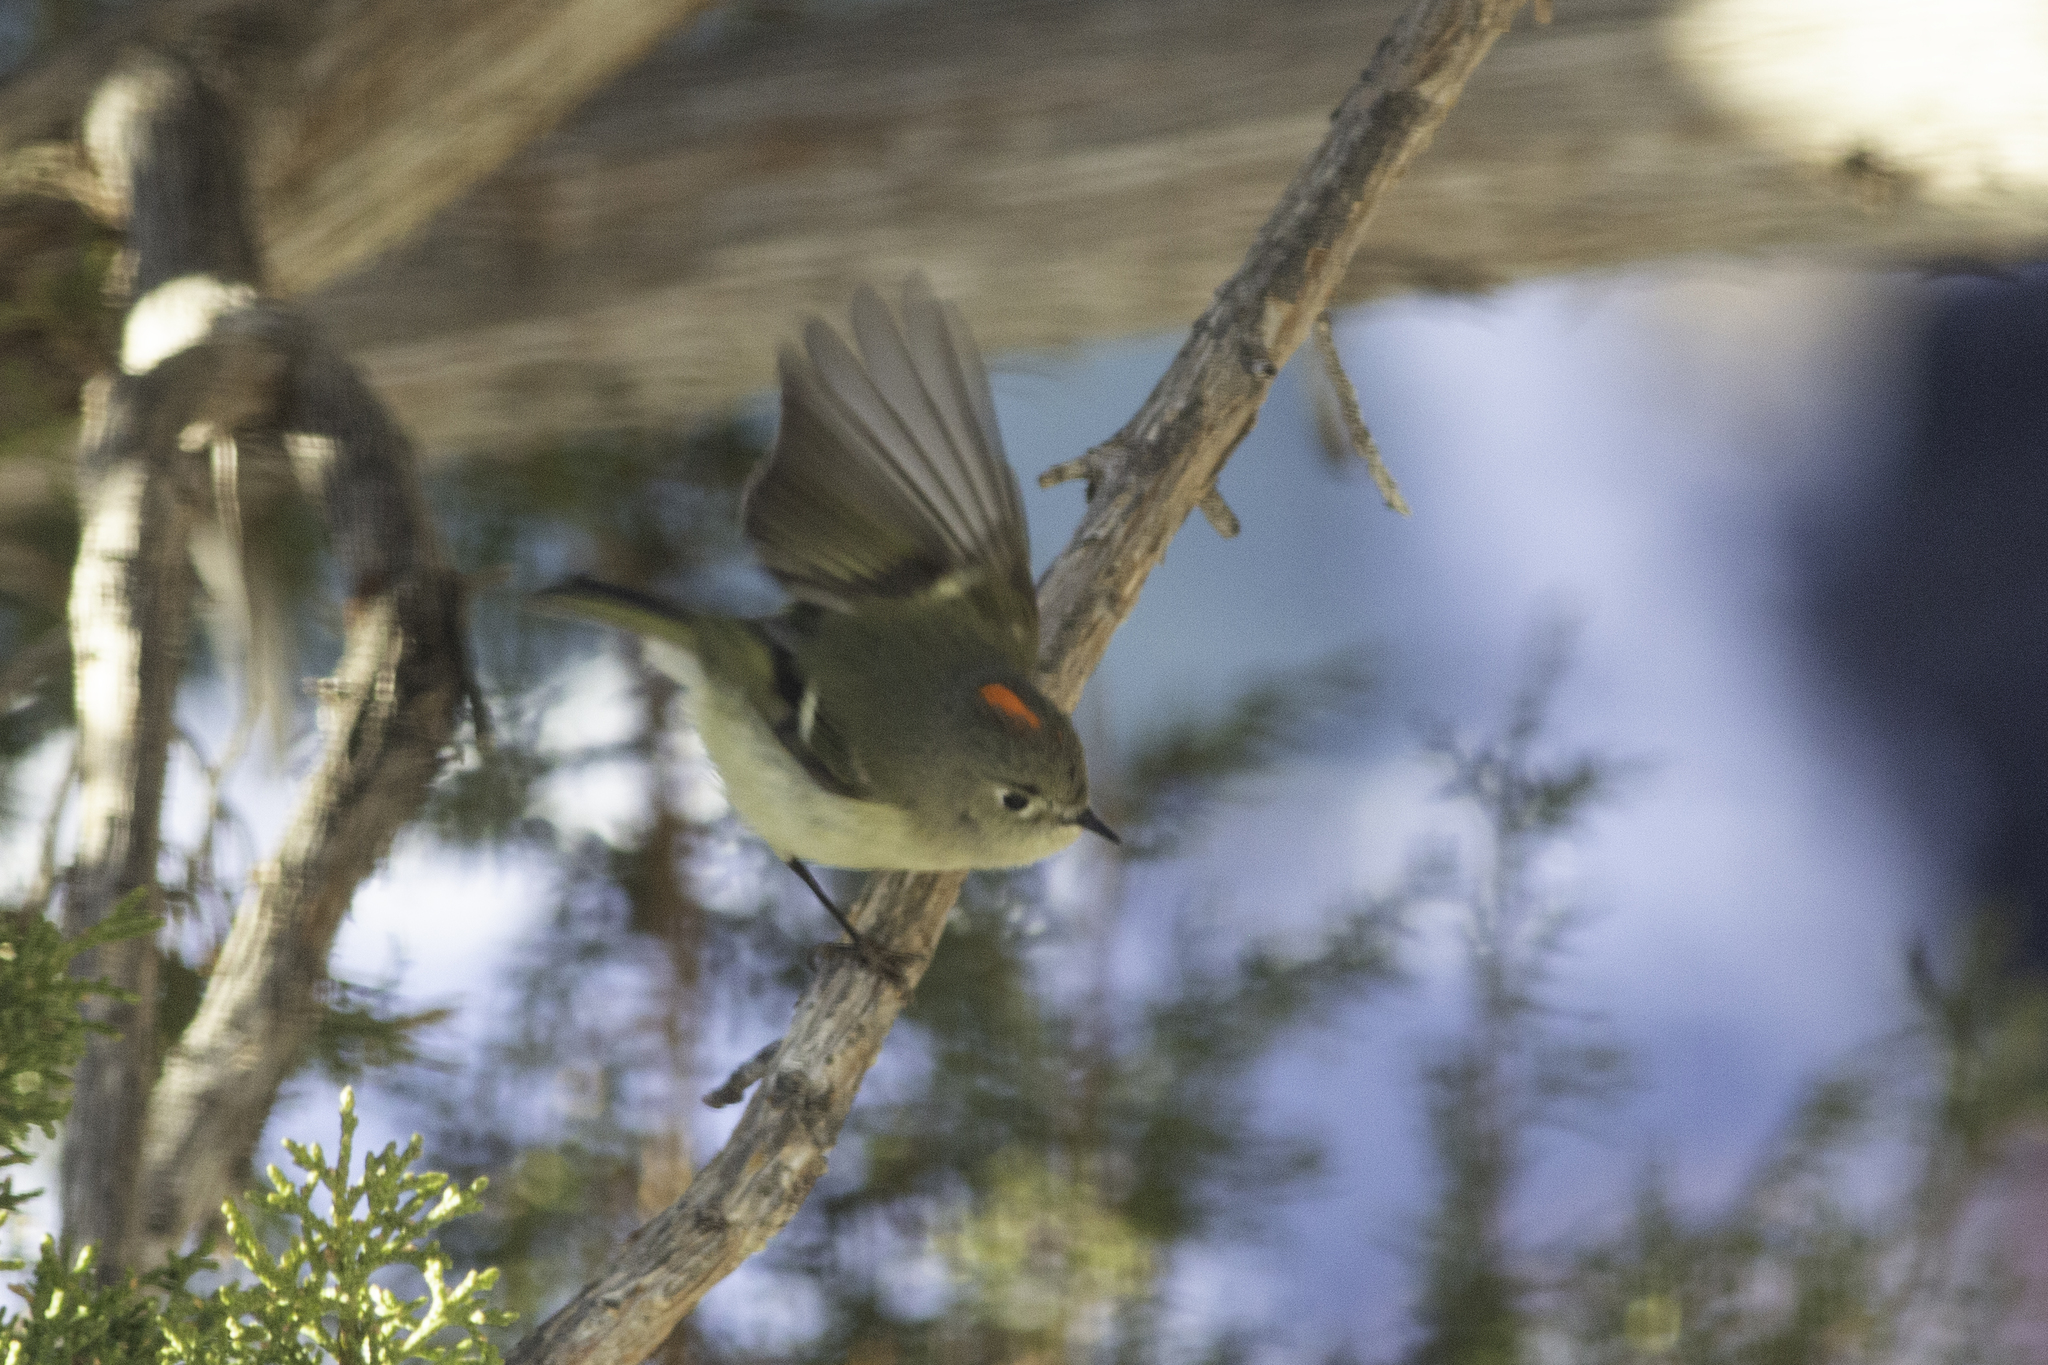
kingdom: Animalia
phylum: Chordata
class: Aves
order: Passeriformes
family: Regulidae
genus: Regulus
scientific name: Regulus calendula
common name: Ruby-crowned kinglet
